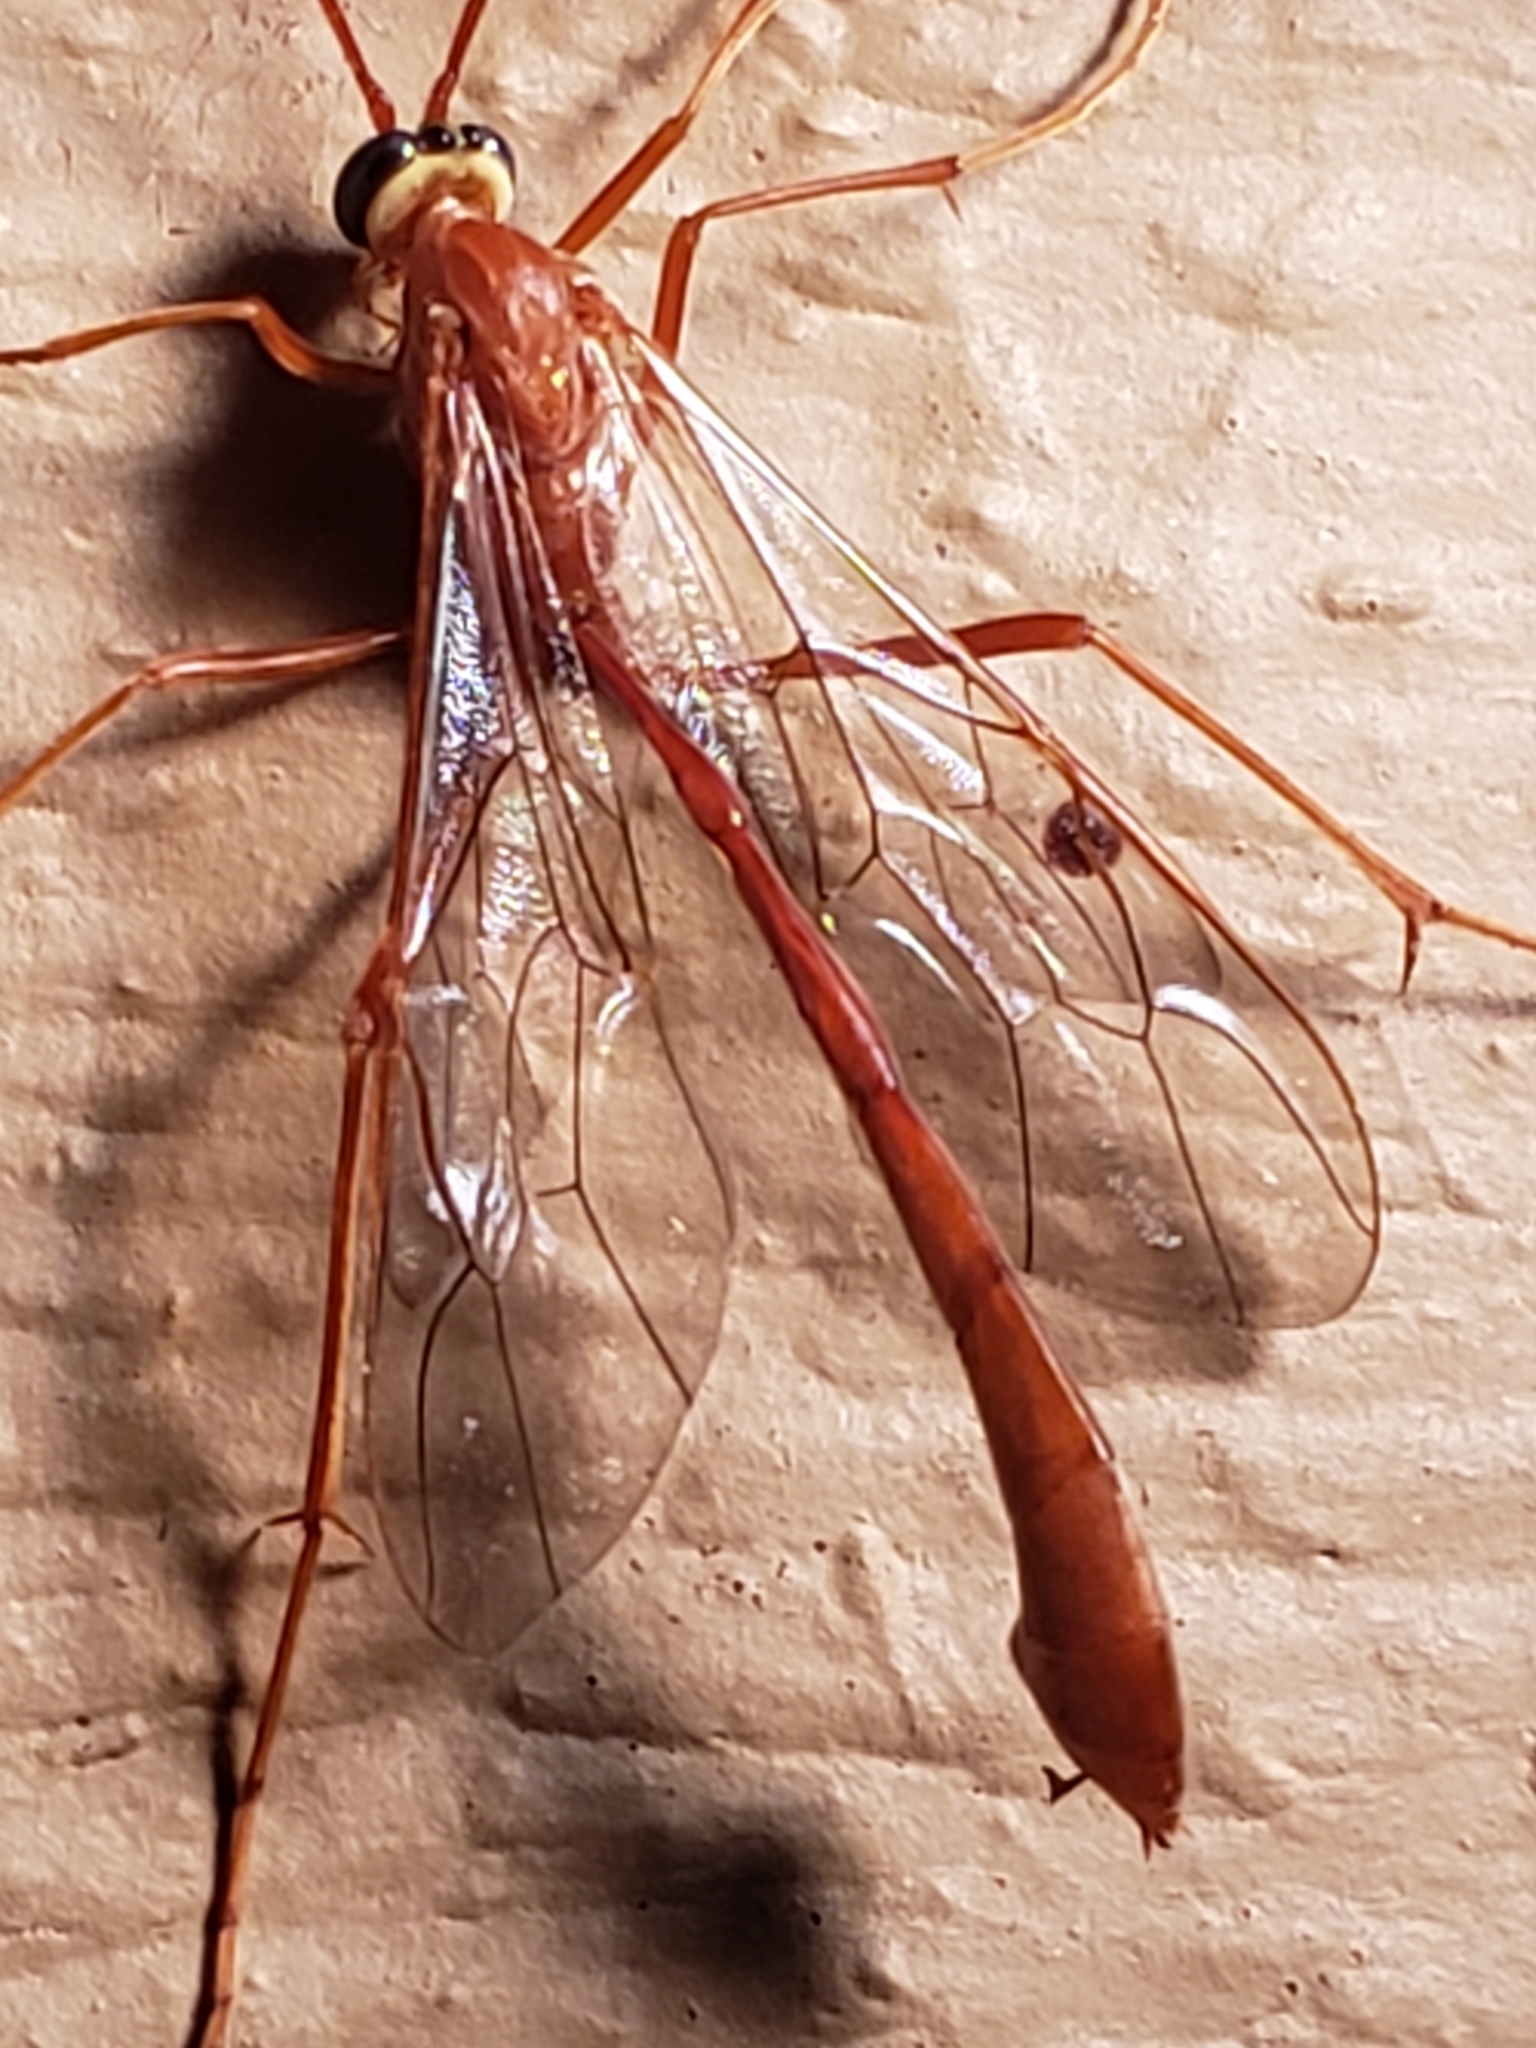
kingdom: Animalia
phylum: Arthropoda
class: Insecta
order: Hymenoptera
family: Ichneumonidae
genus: Enicospilus
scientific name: Enicospilus
